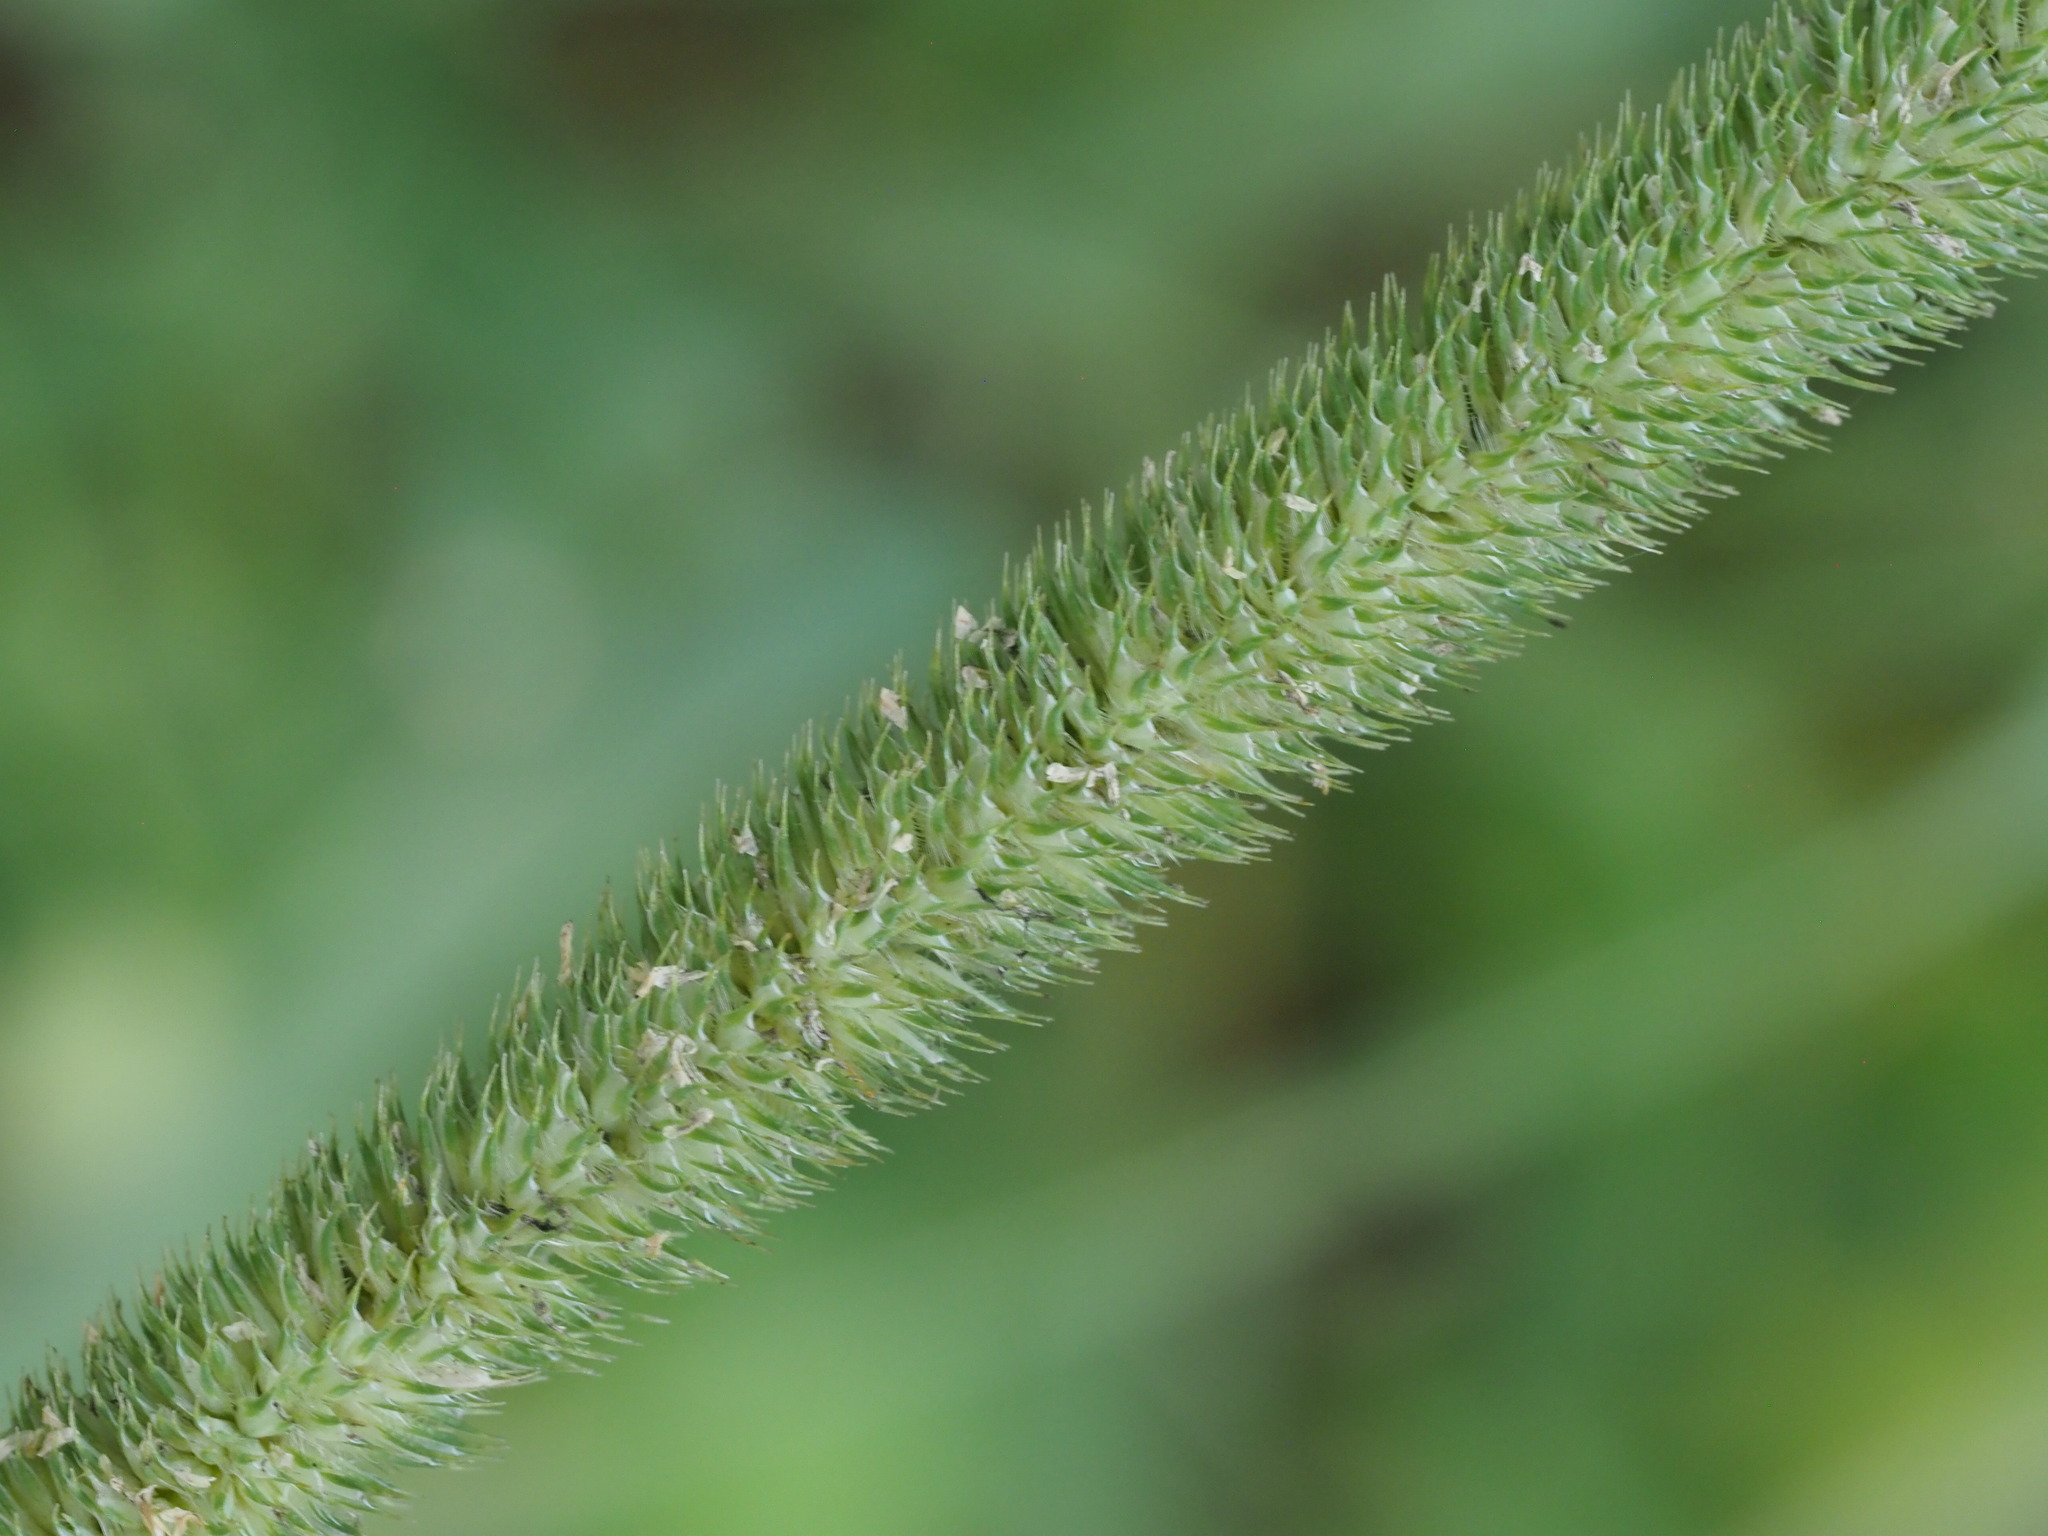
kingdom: Plantae
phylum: Tracheophyta
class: Liliopsida
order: Poales
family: Poaceae
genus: Phleum
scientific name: Phleum pratense
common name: Timothy grass
